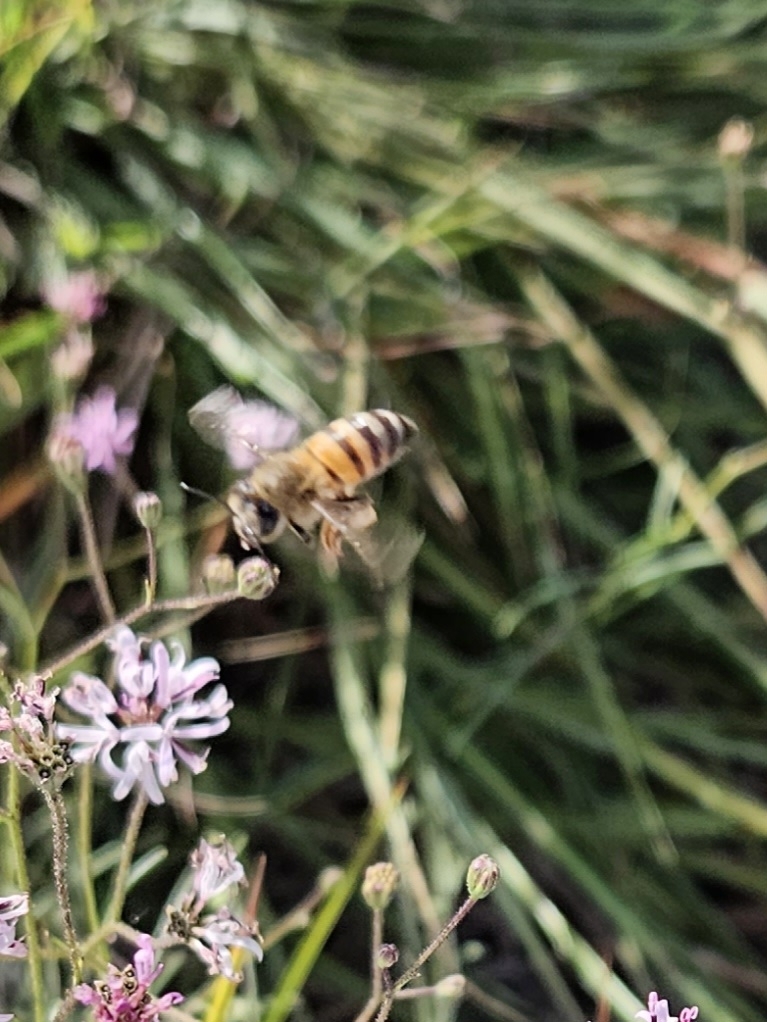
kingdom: Animalia
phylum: Arthropoda
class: Insecta
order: Hymenoptera
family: Apidae
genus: Apis
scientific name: Apis mellifera
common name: Honey bee
